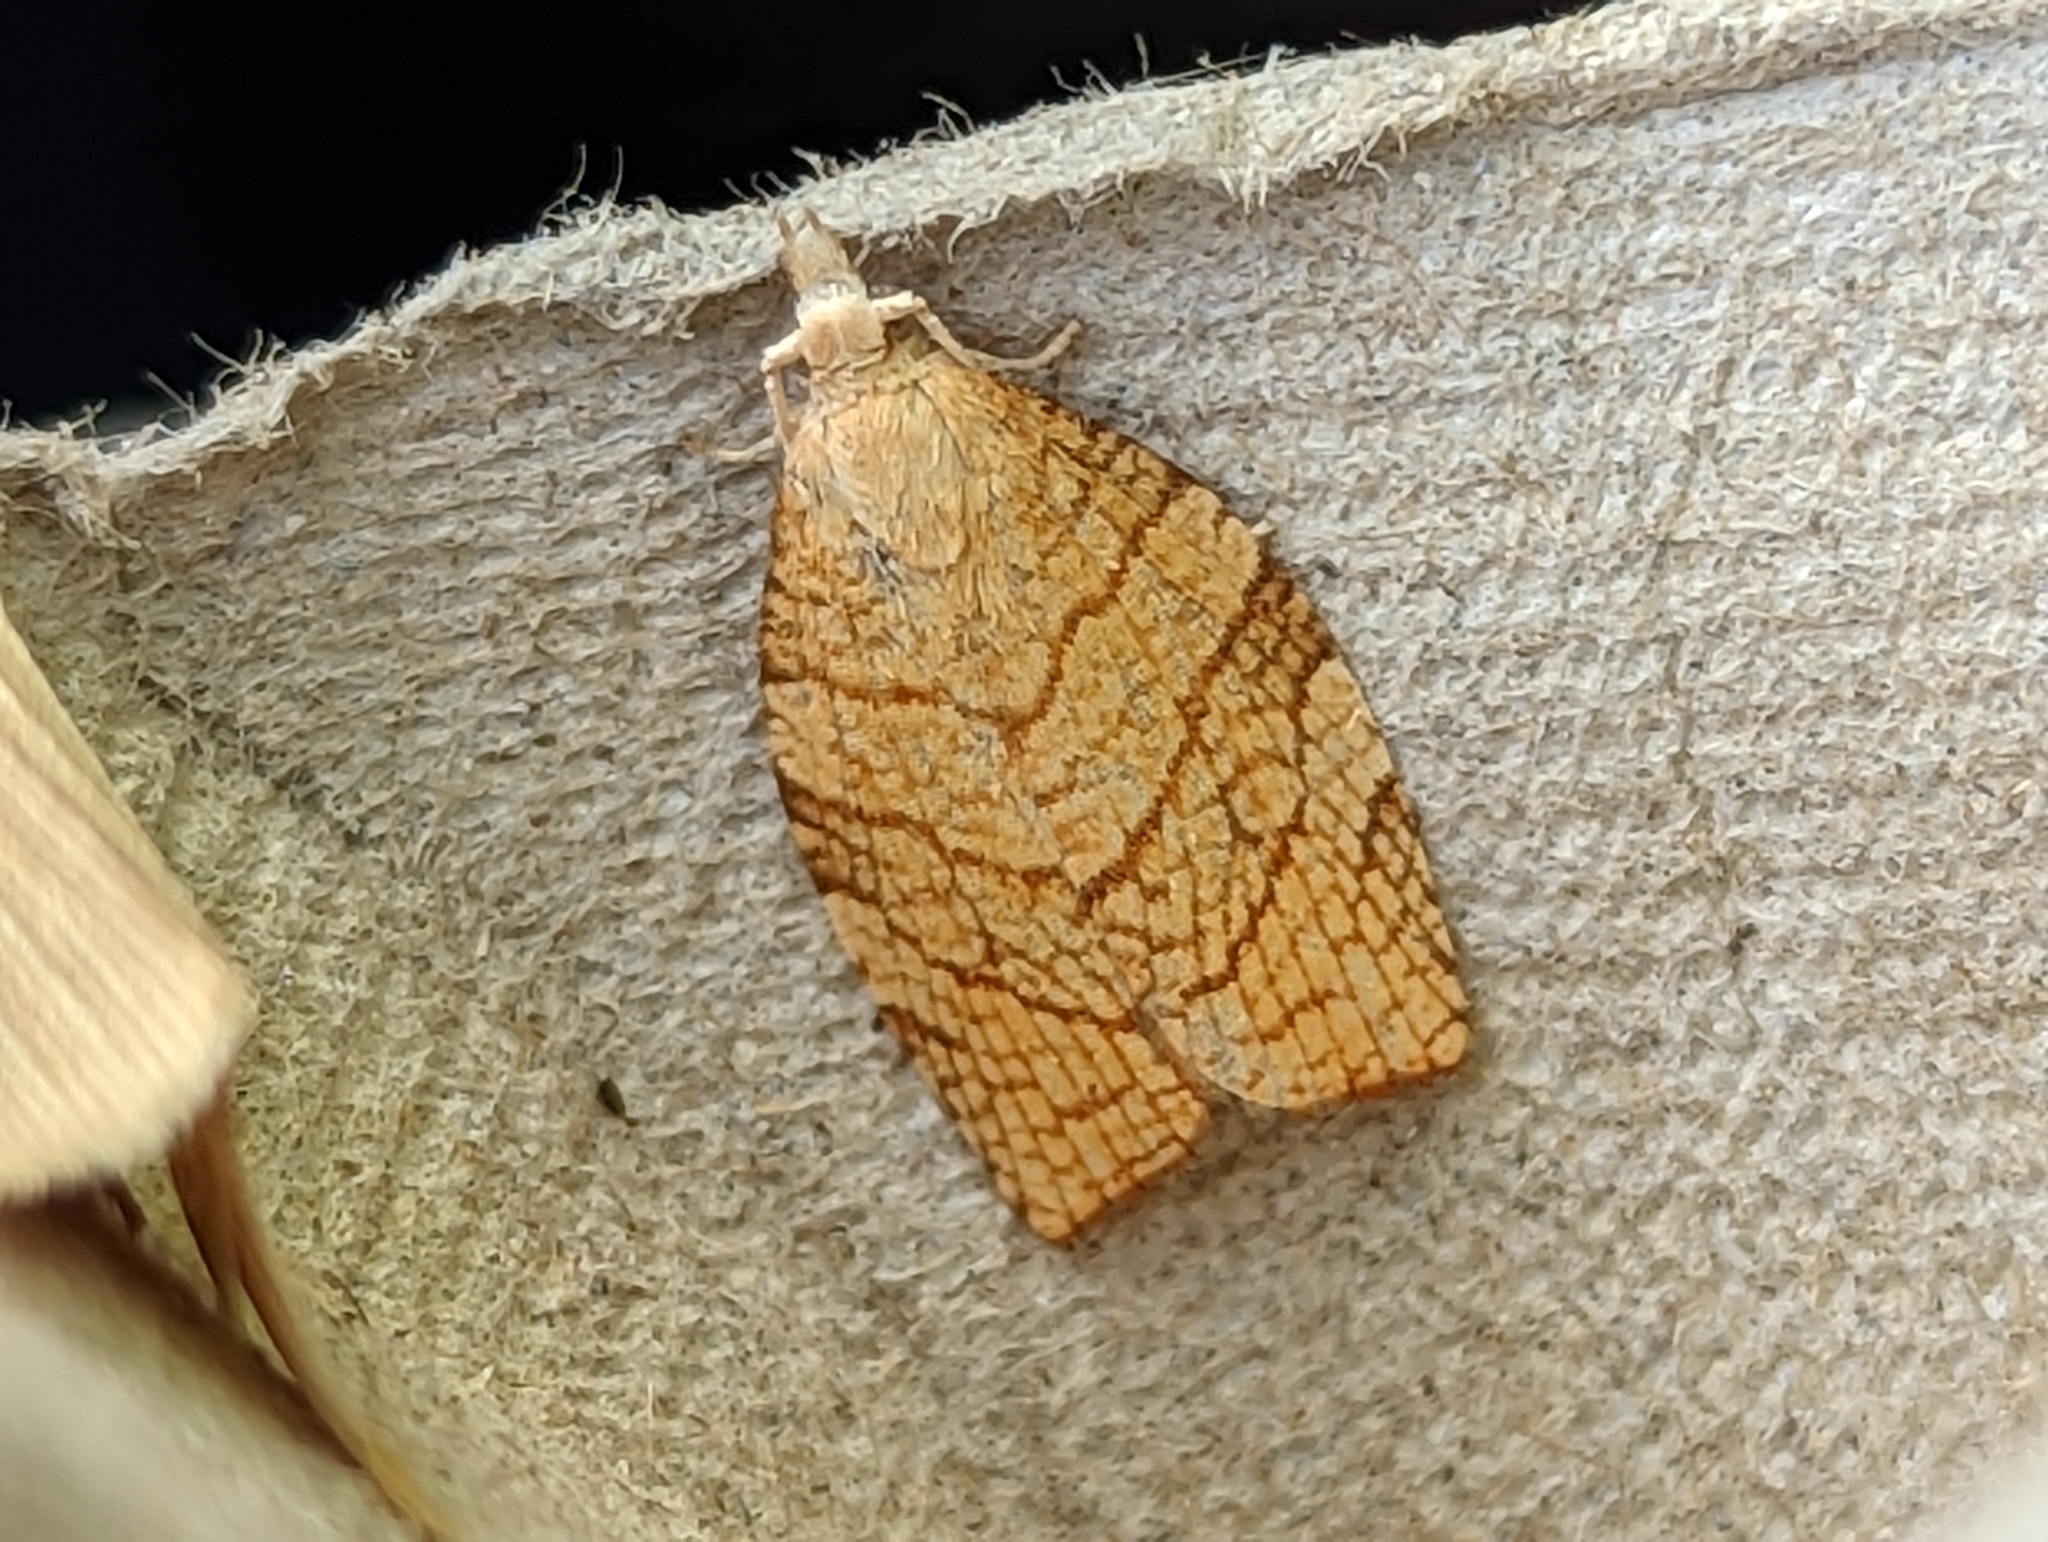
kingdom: Animalia
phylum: Arthropoda
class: Insecta
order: Lepidoptera
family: Tortricidae
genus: Pandemis
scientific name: Pandemis corylana
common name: Chequered fruit-tree tortrix
